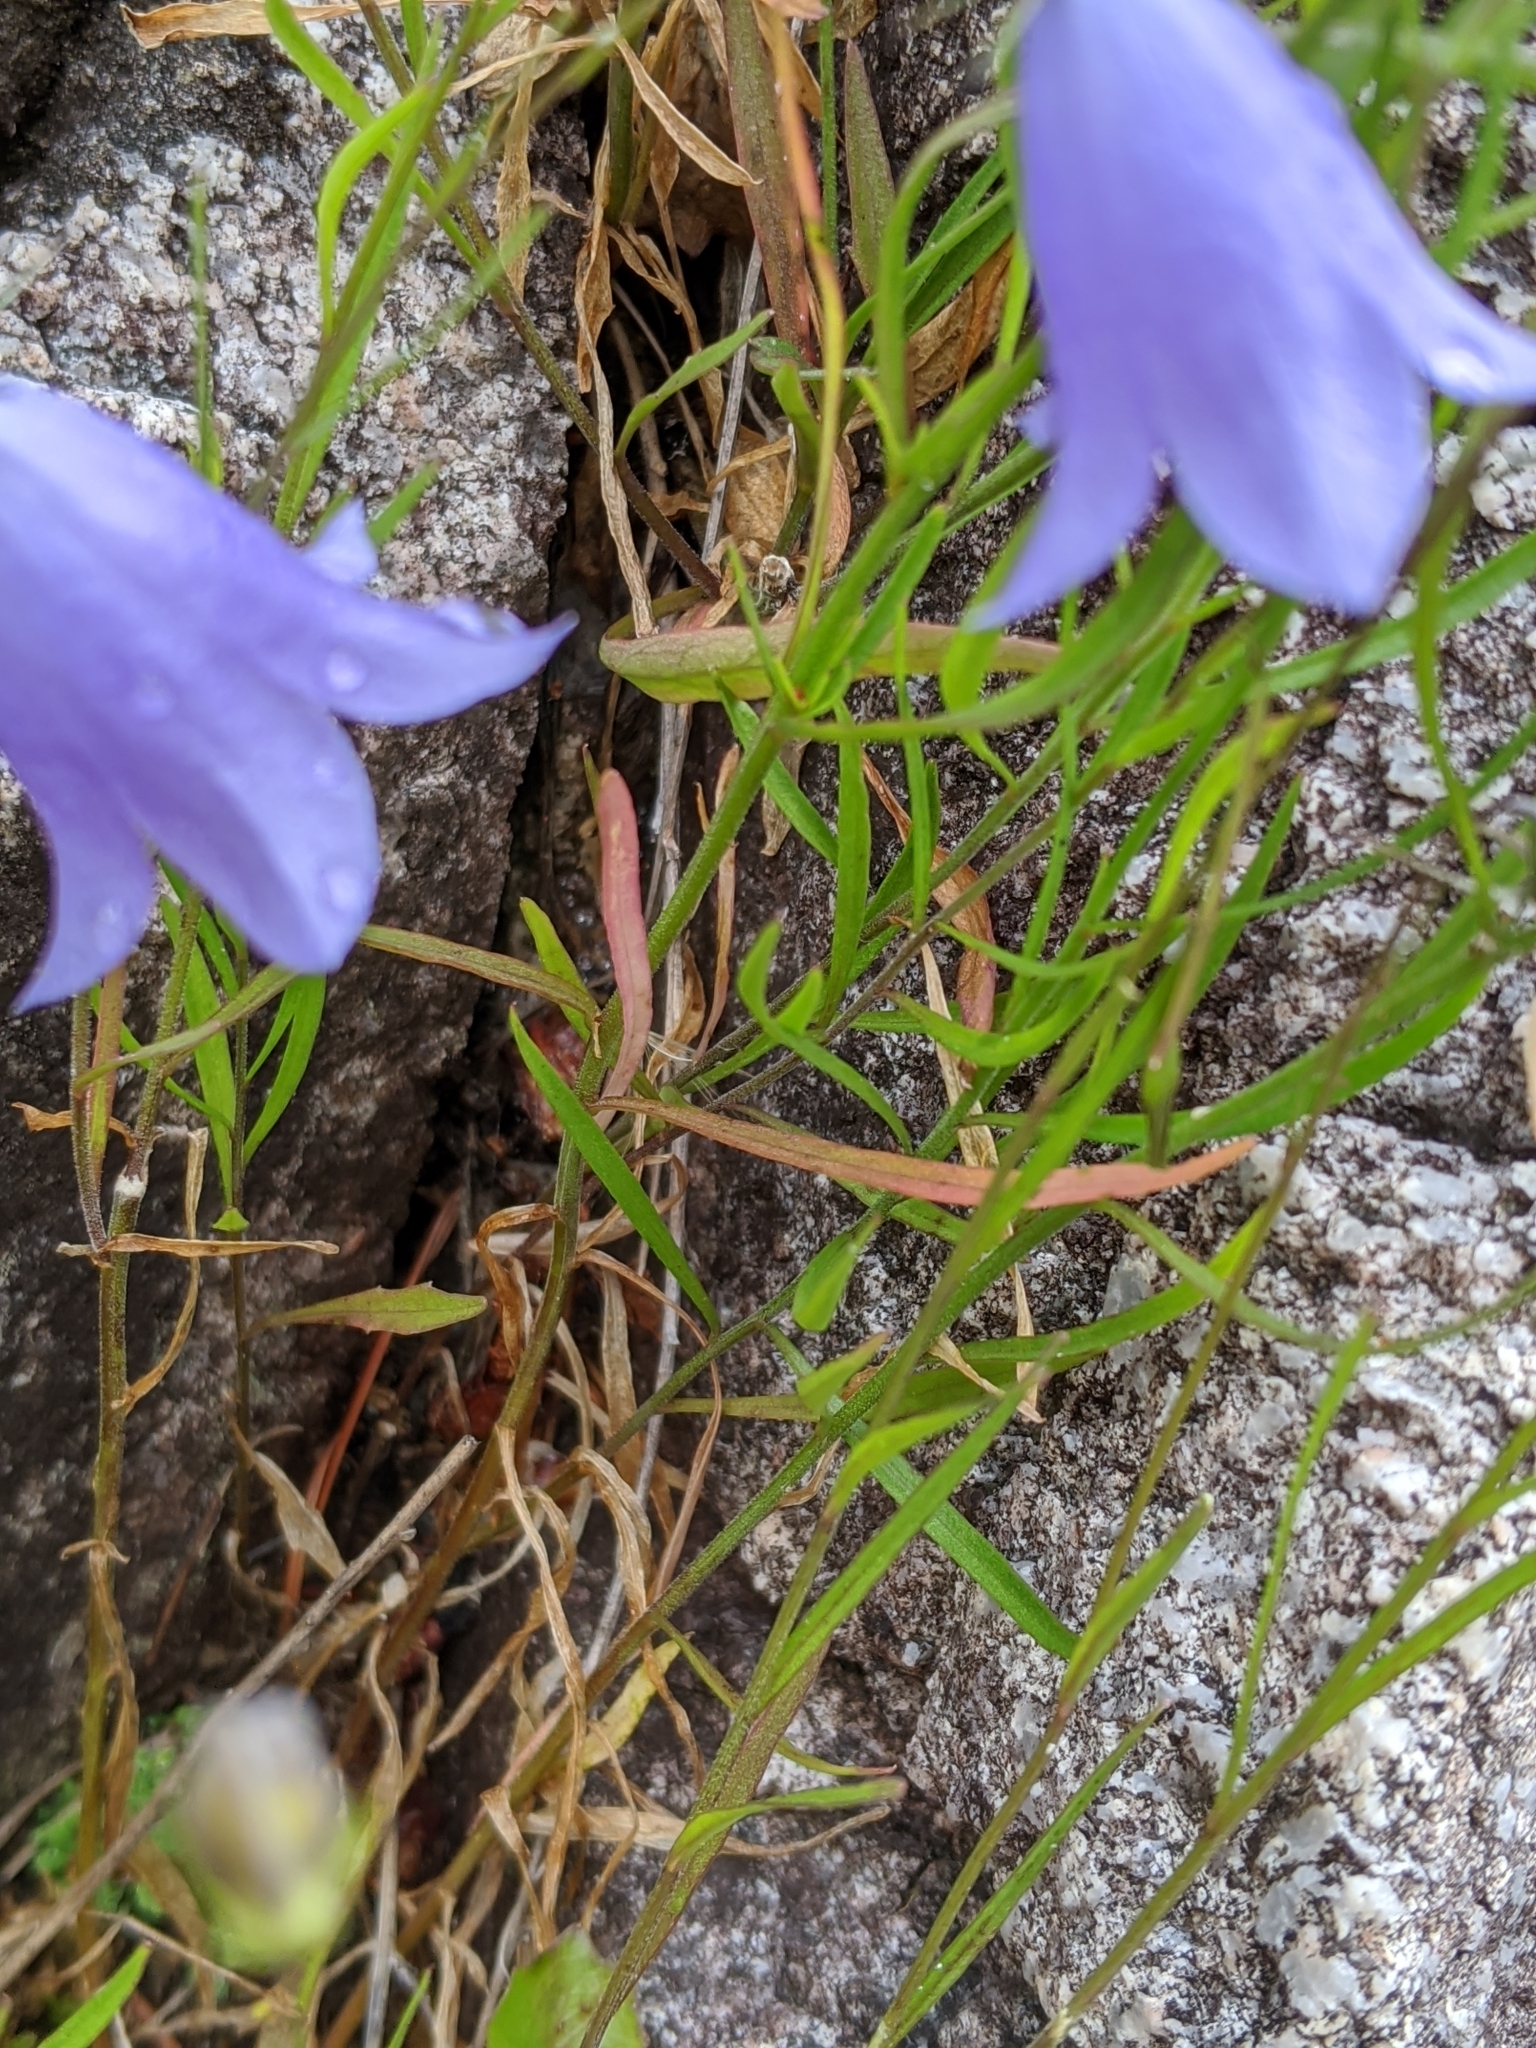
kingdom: Plantae
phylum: Tracheophyta
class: Magnoliopsida
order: Asterales
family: Campanulaceae
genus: Campanula
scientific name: Campanula alaskana
